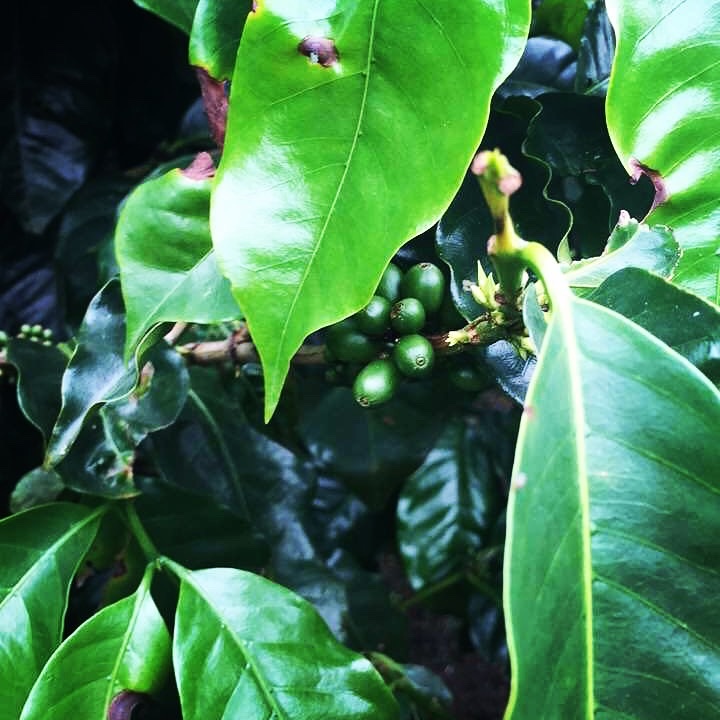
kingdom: Plantae
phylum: Tracheophyta
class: Magnoliopsida
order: Gentianales
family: Rubiaceae
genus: Coffea
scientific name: Coffea arabica
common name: Coffee
